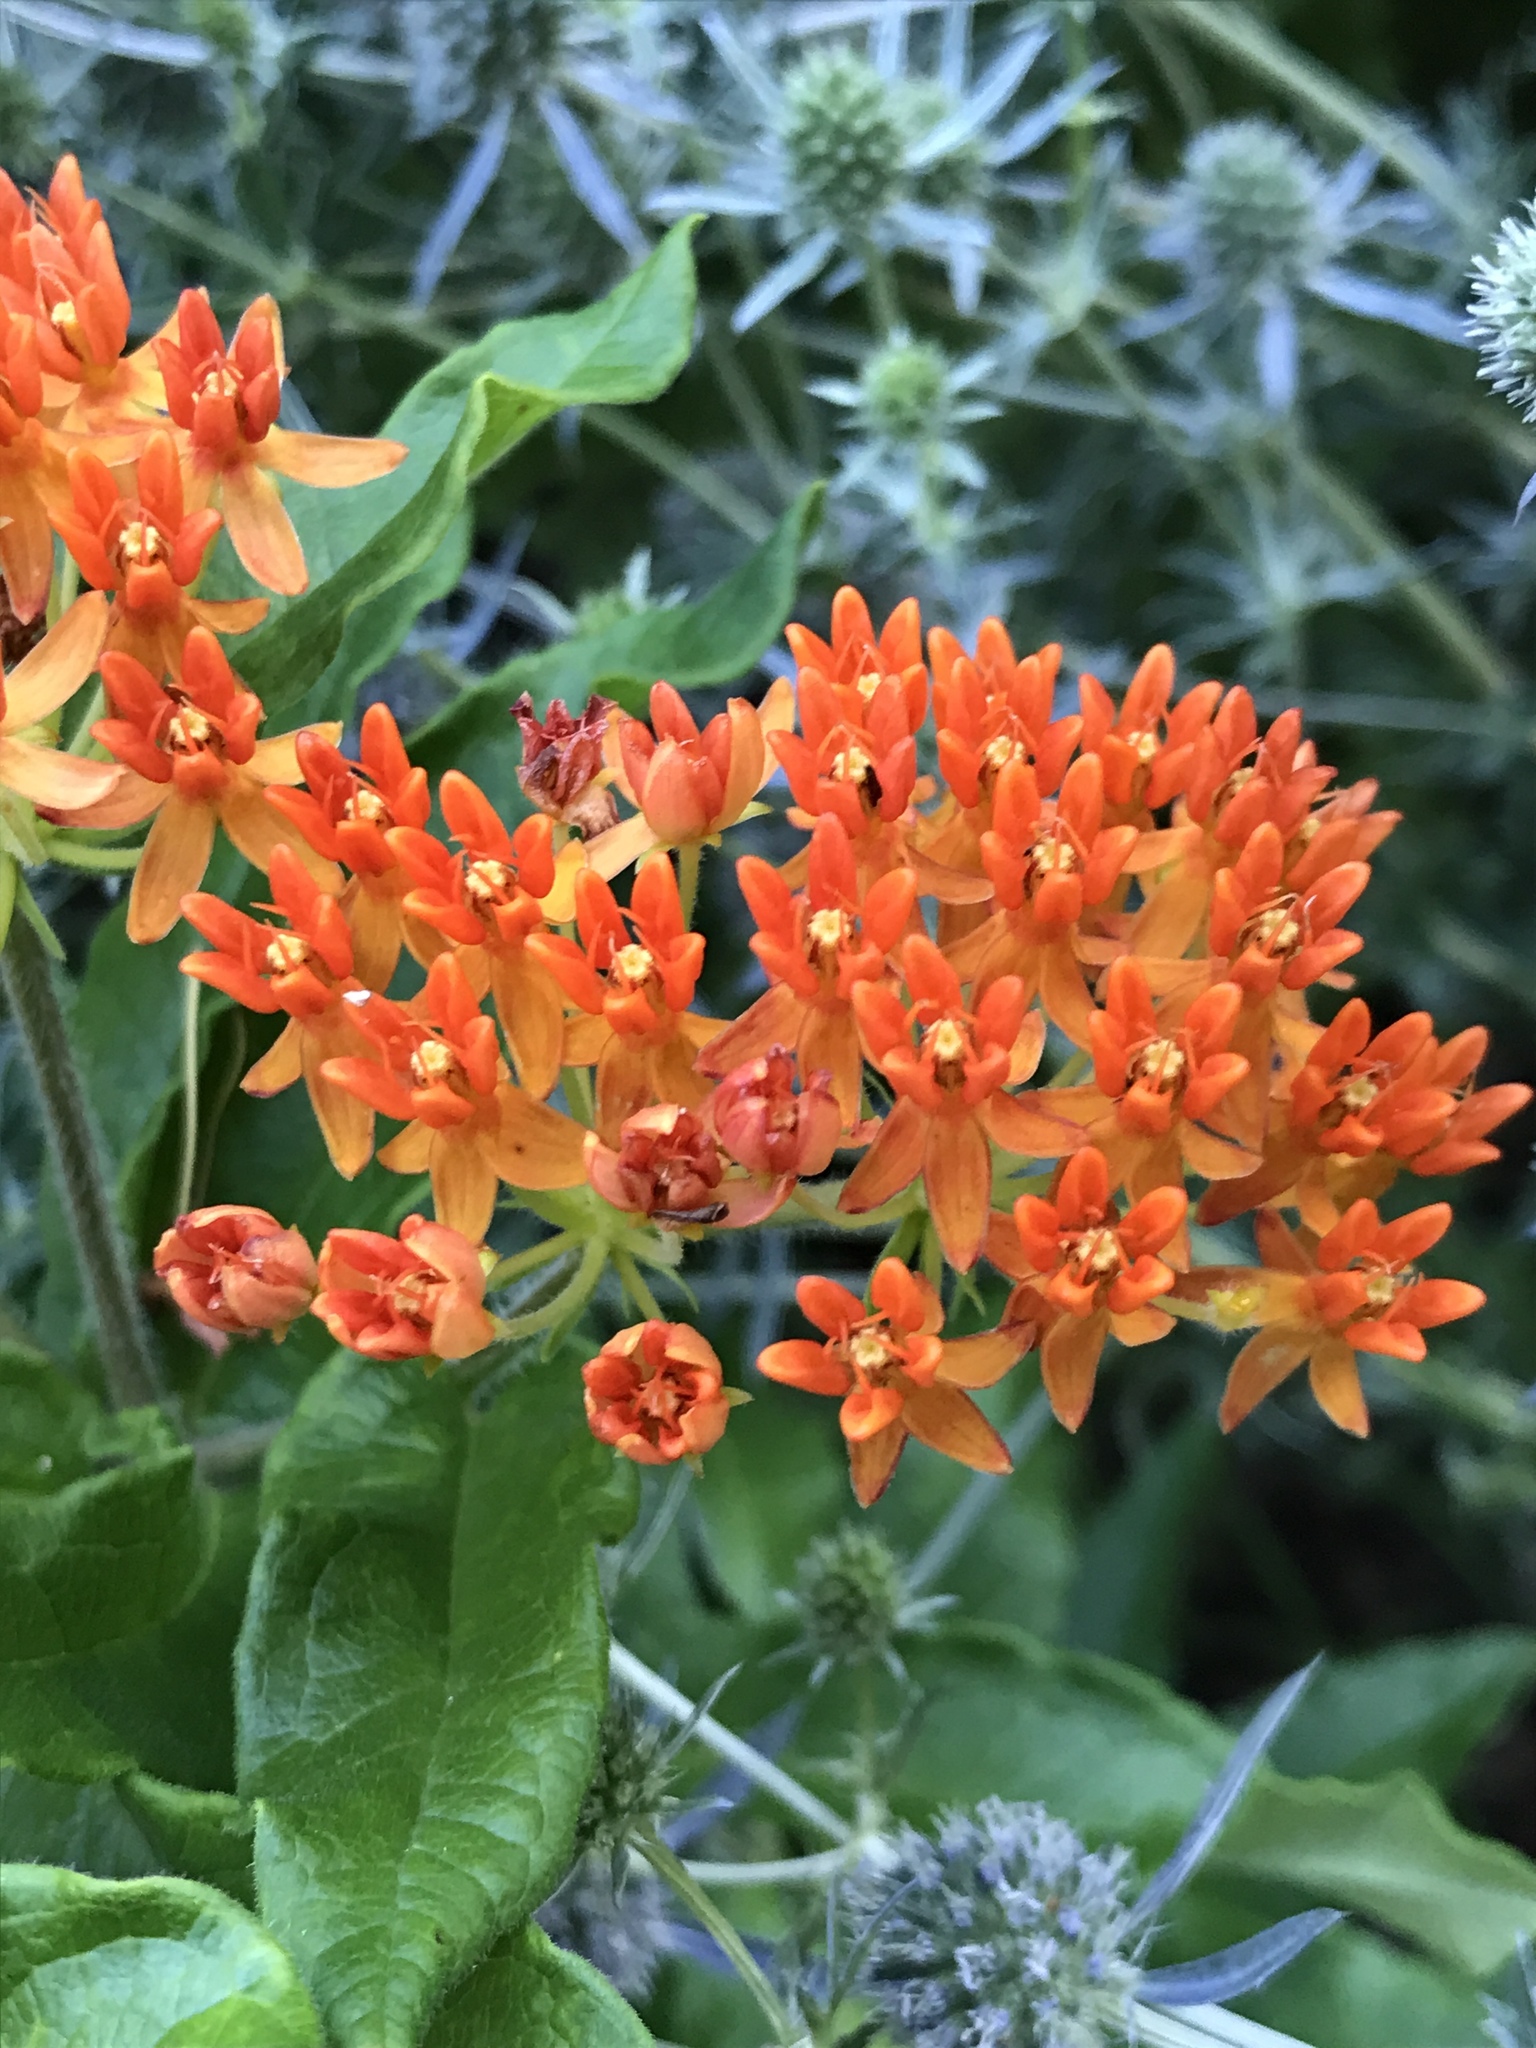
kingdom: Plantae
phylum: Tracheophyta
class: Magnoliopsida
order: Gentianales
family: Apocynaceae
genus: Asclepias
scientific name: Asclepias tuberosa
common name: Butterfly milkweed
